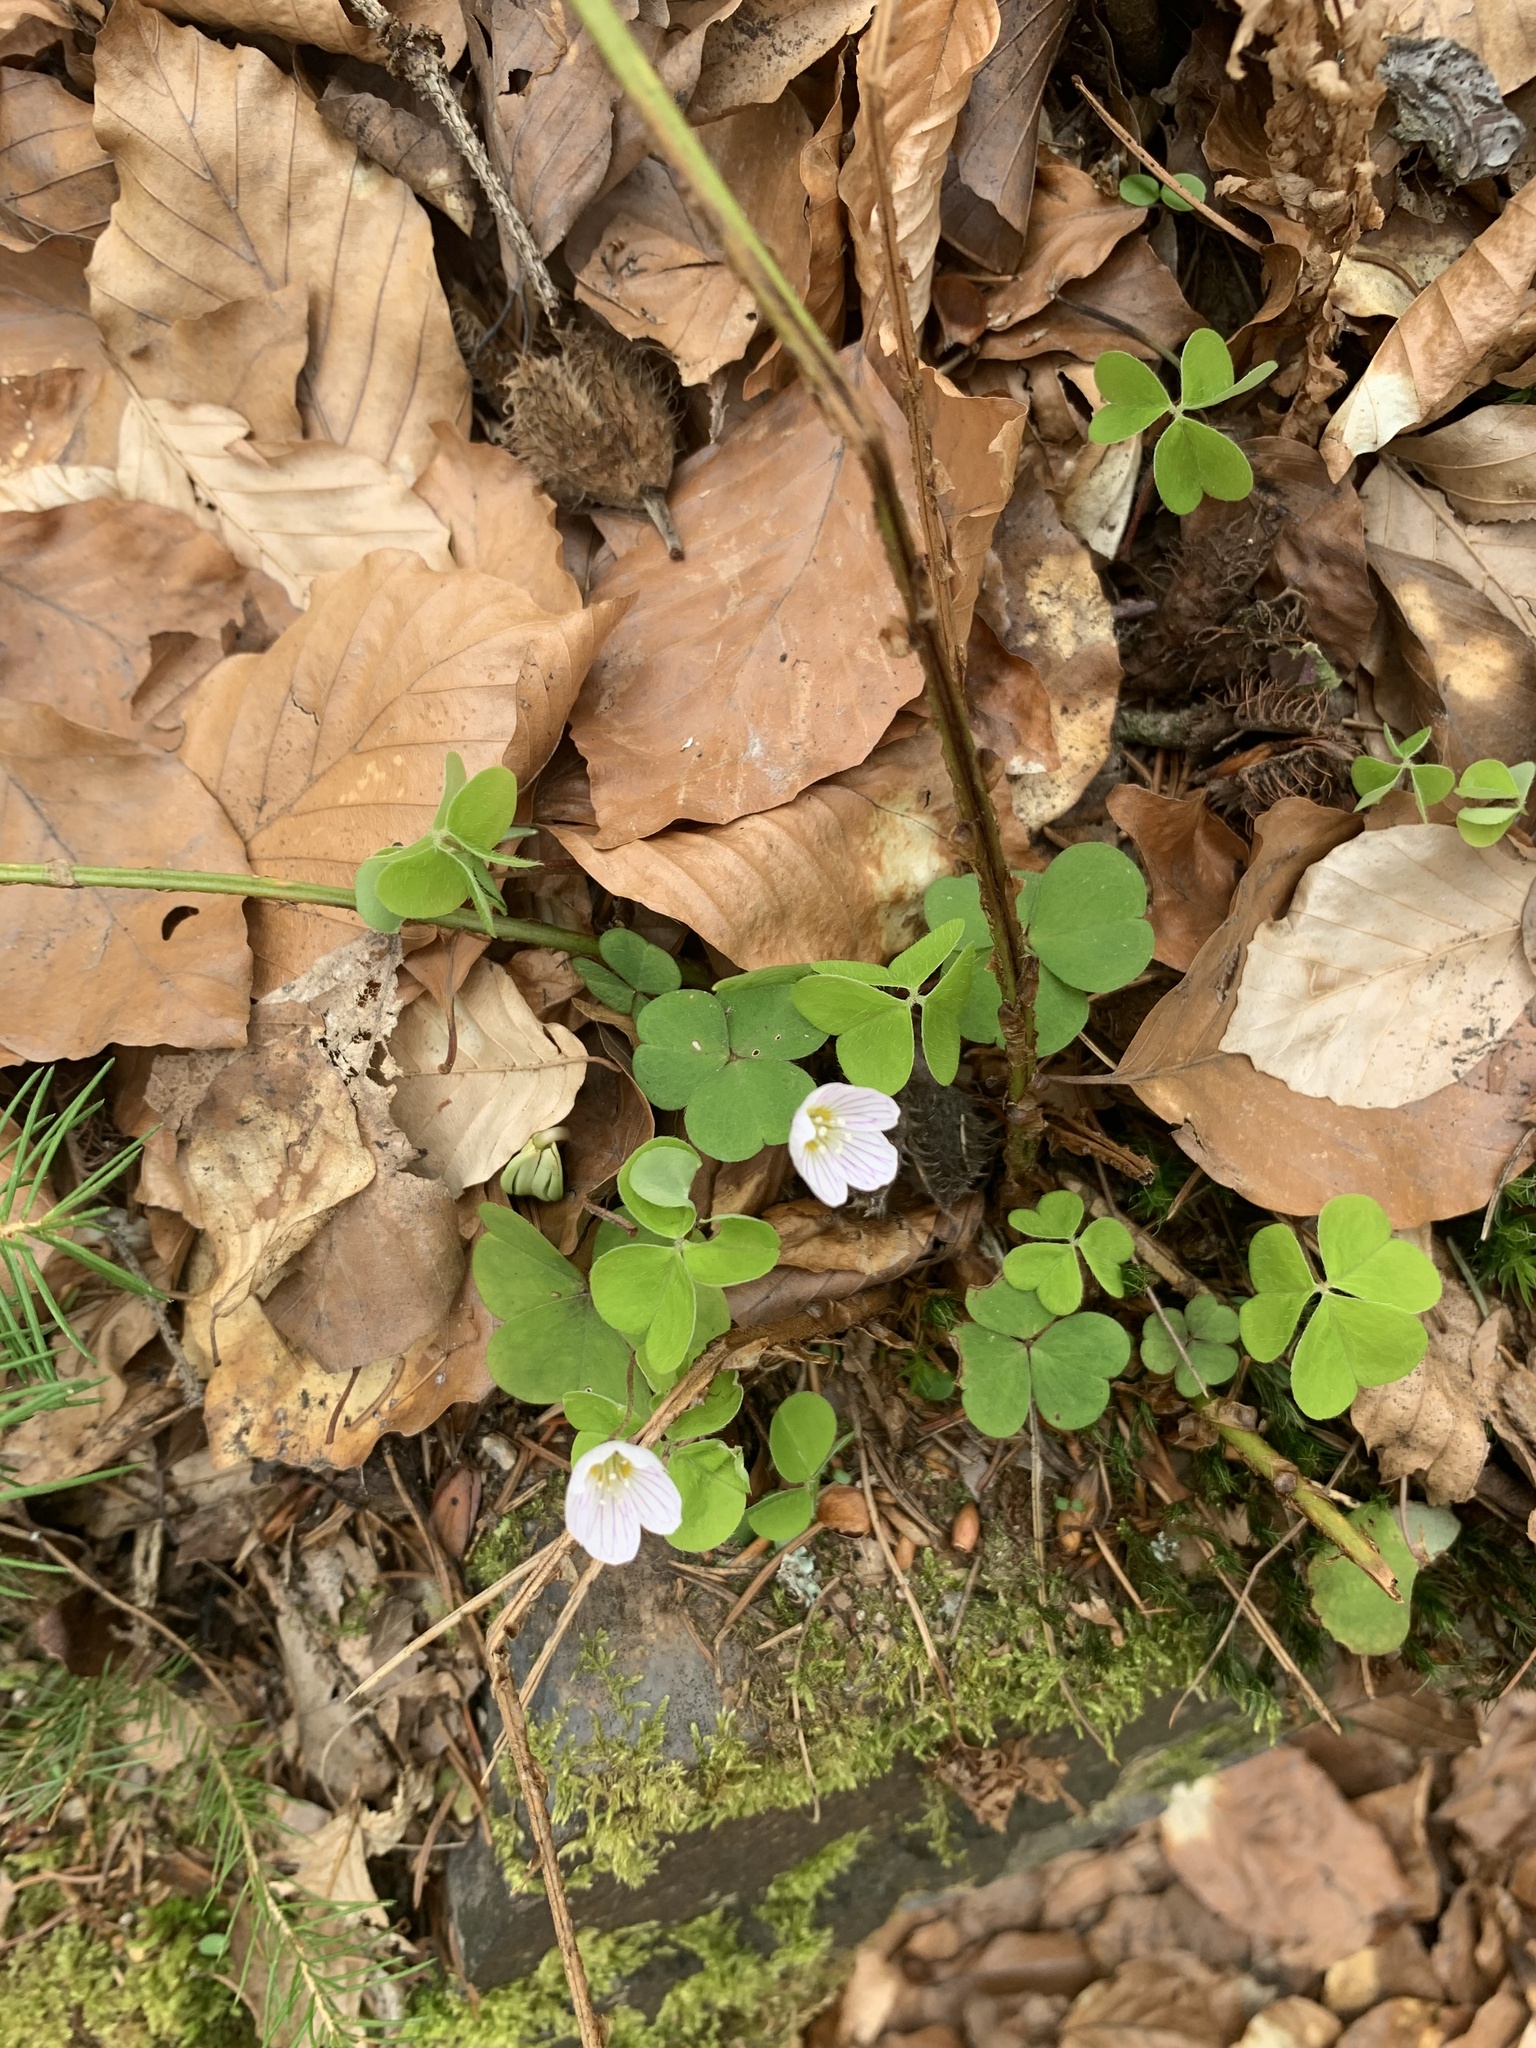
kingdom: Plantae
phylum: Tracheophyta
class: Magnoliopsida
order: Oxalidales
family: Oxalidaceae
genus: Oxalis
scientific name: Oxalis acetosella
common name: Wood-sorrel
